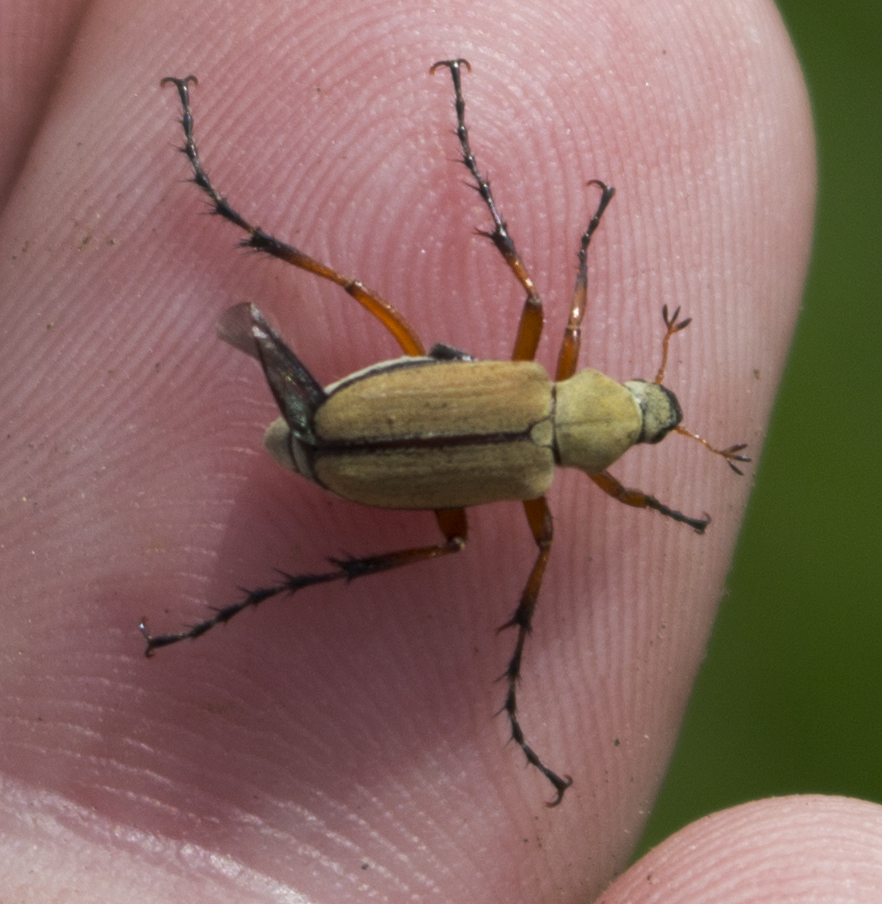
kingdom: Animalia
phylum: Arthropoda
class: Insecta
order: Coleoptera
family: Scarabaeidae
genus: Macrodactylus
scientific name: Macrodactylus subspinosus
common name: American rose chafer
